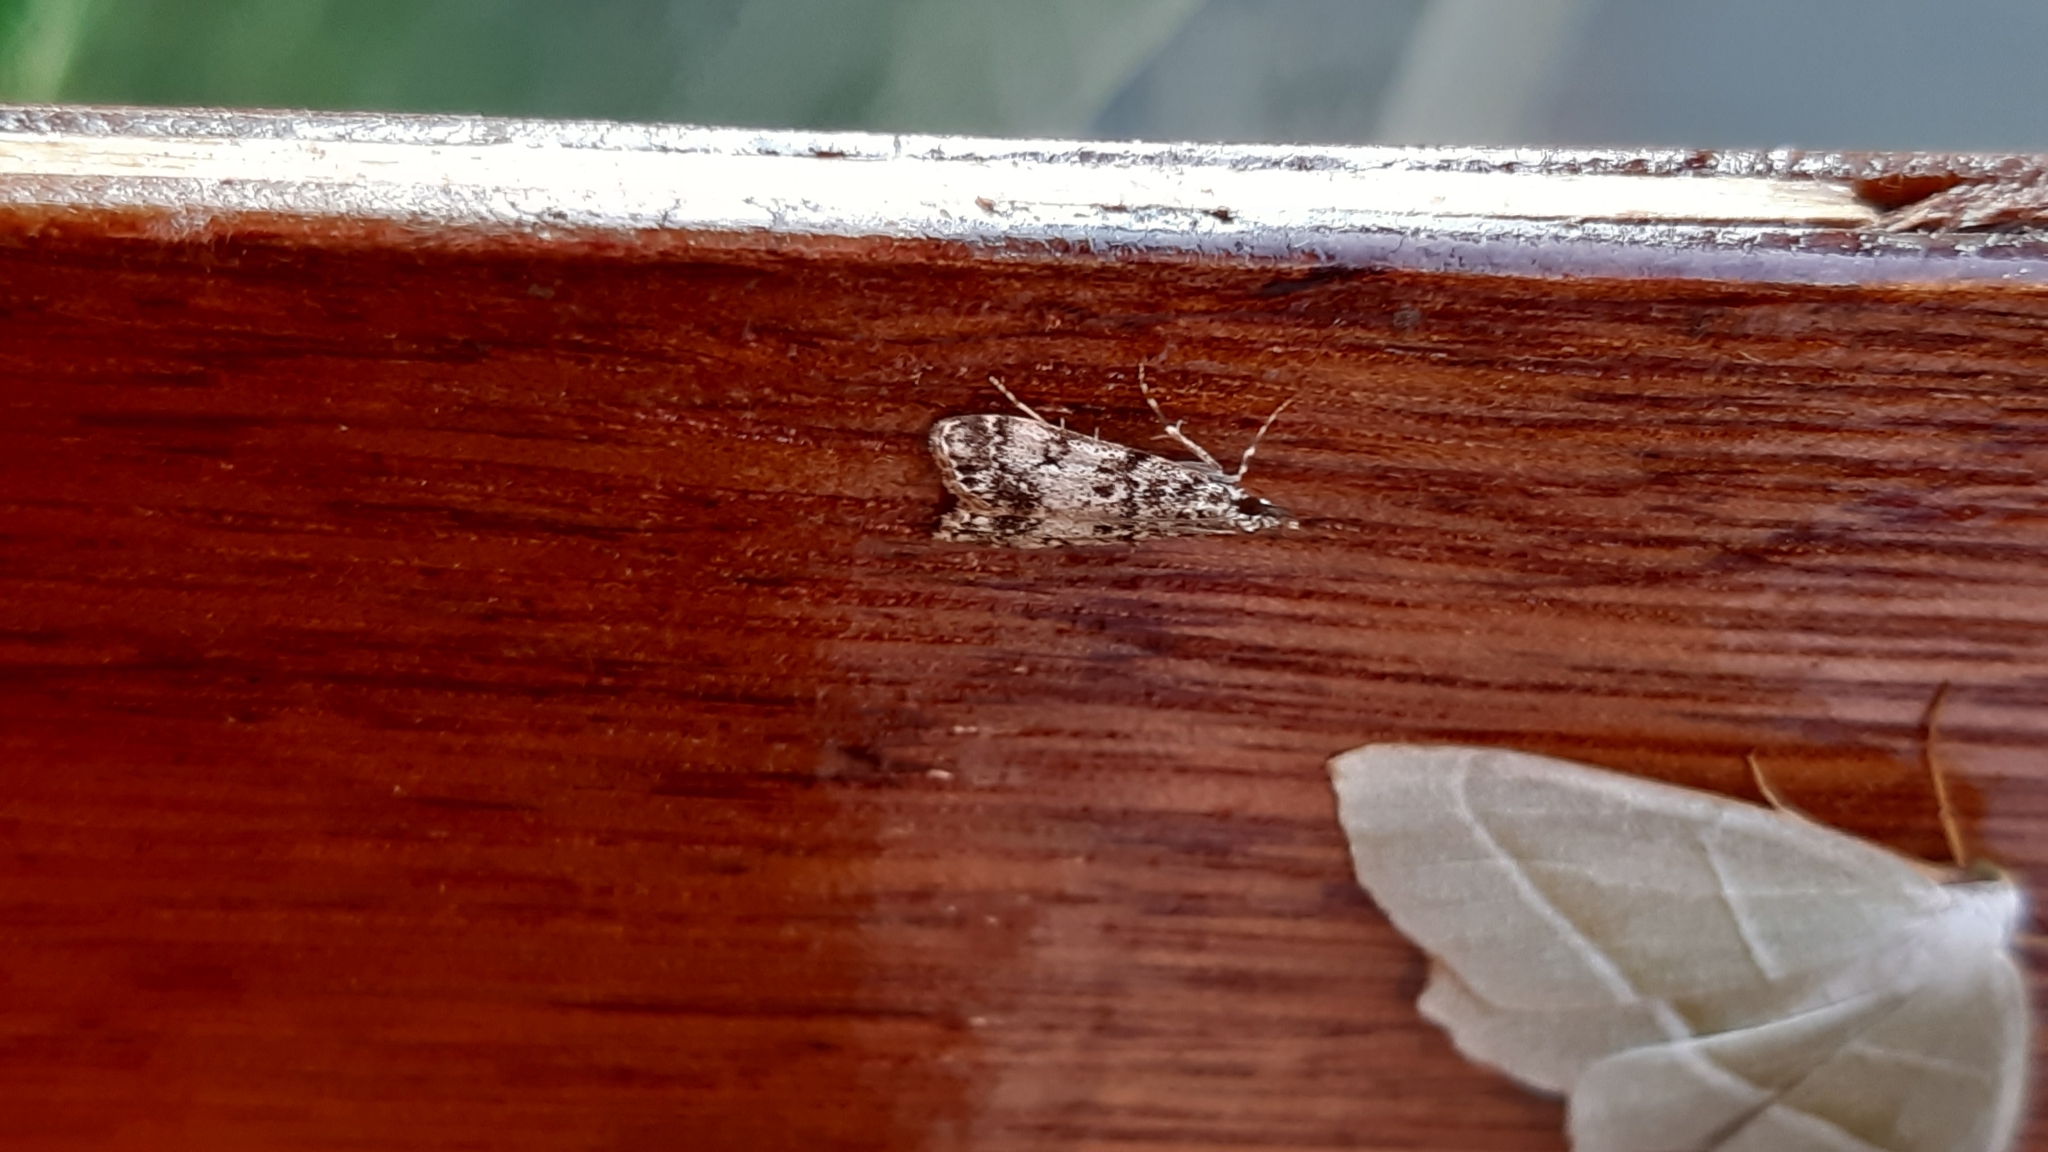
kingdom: Animalia
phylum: Arthropoda
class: Insecta
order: Lepidoptera
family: Crambidae
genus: Eudonia
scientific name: Eudonia lacustrata
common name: Little grey
